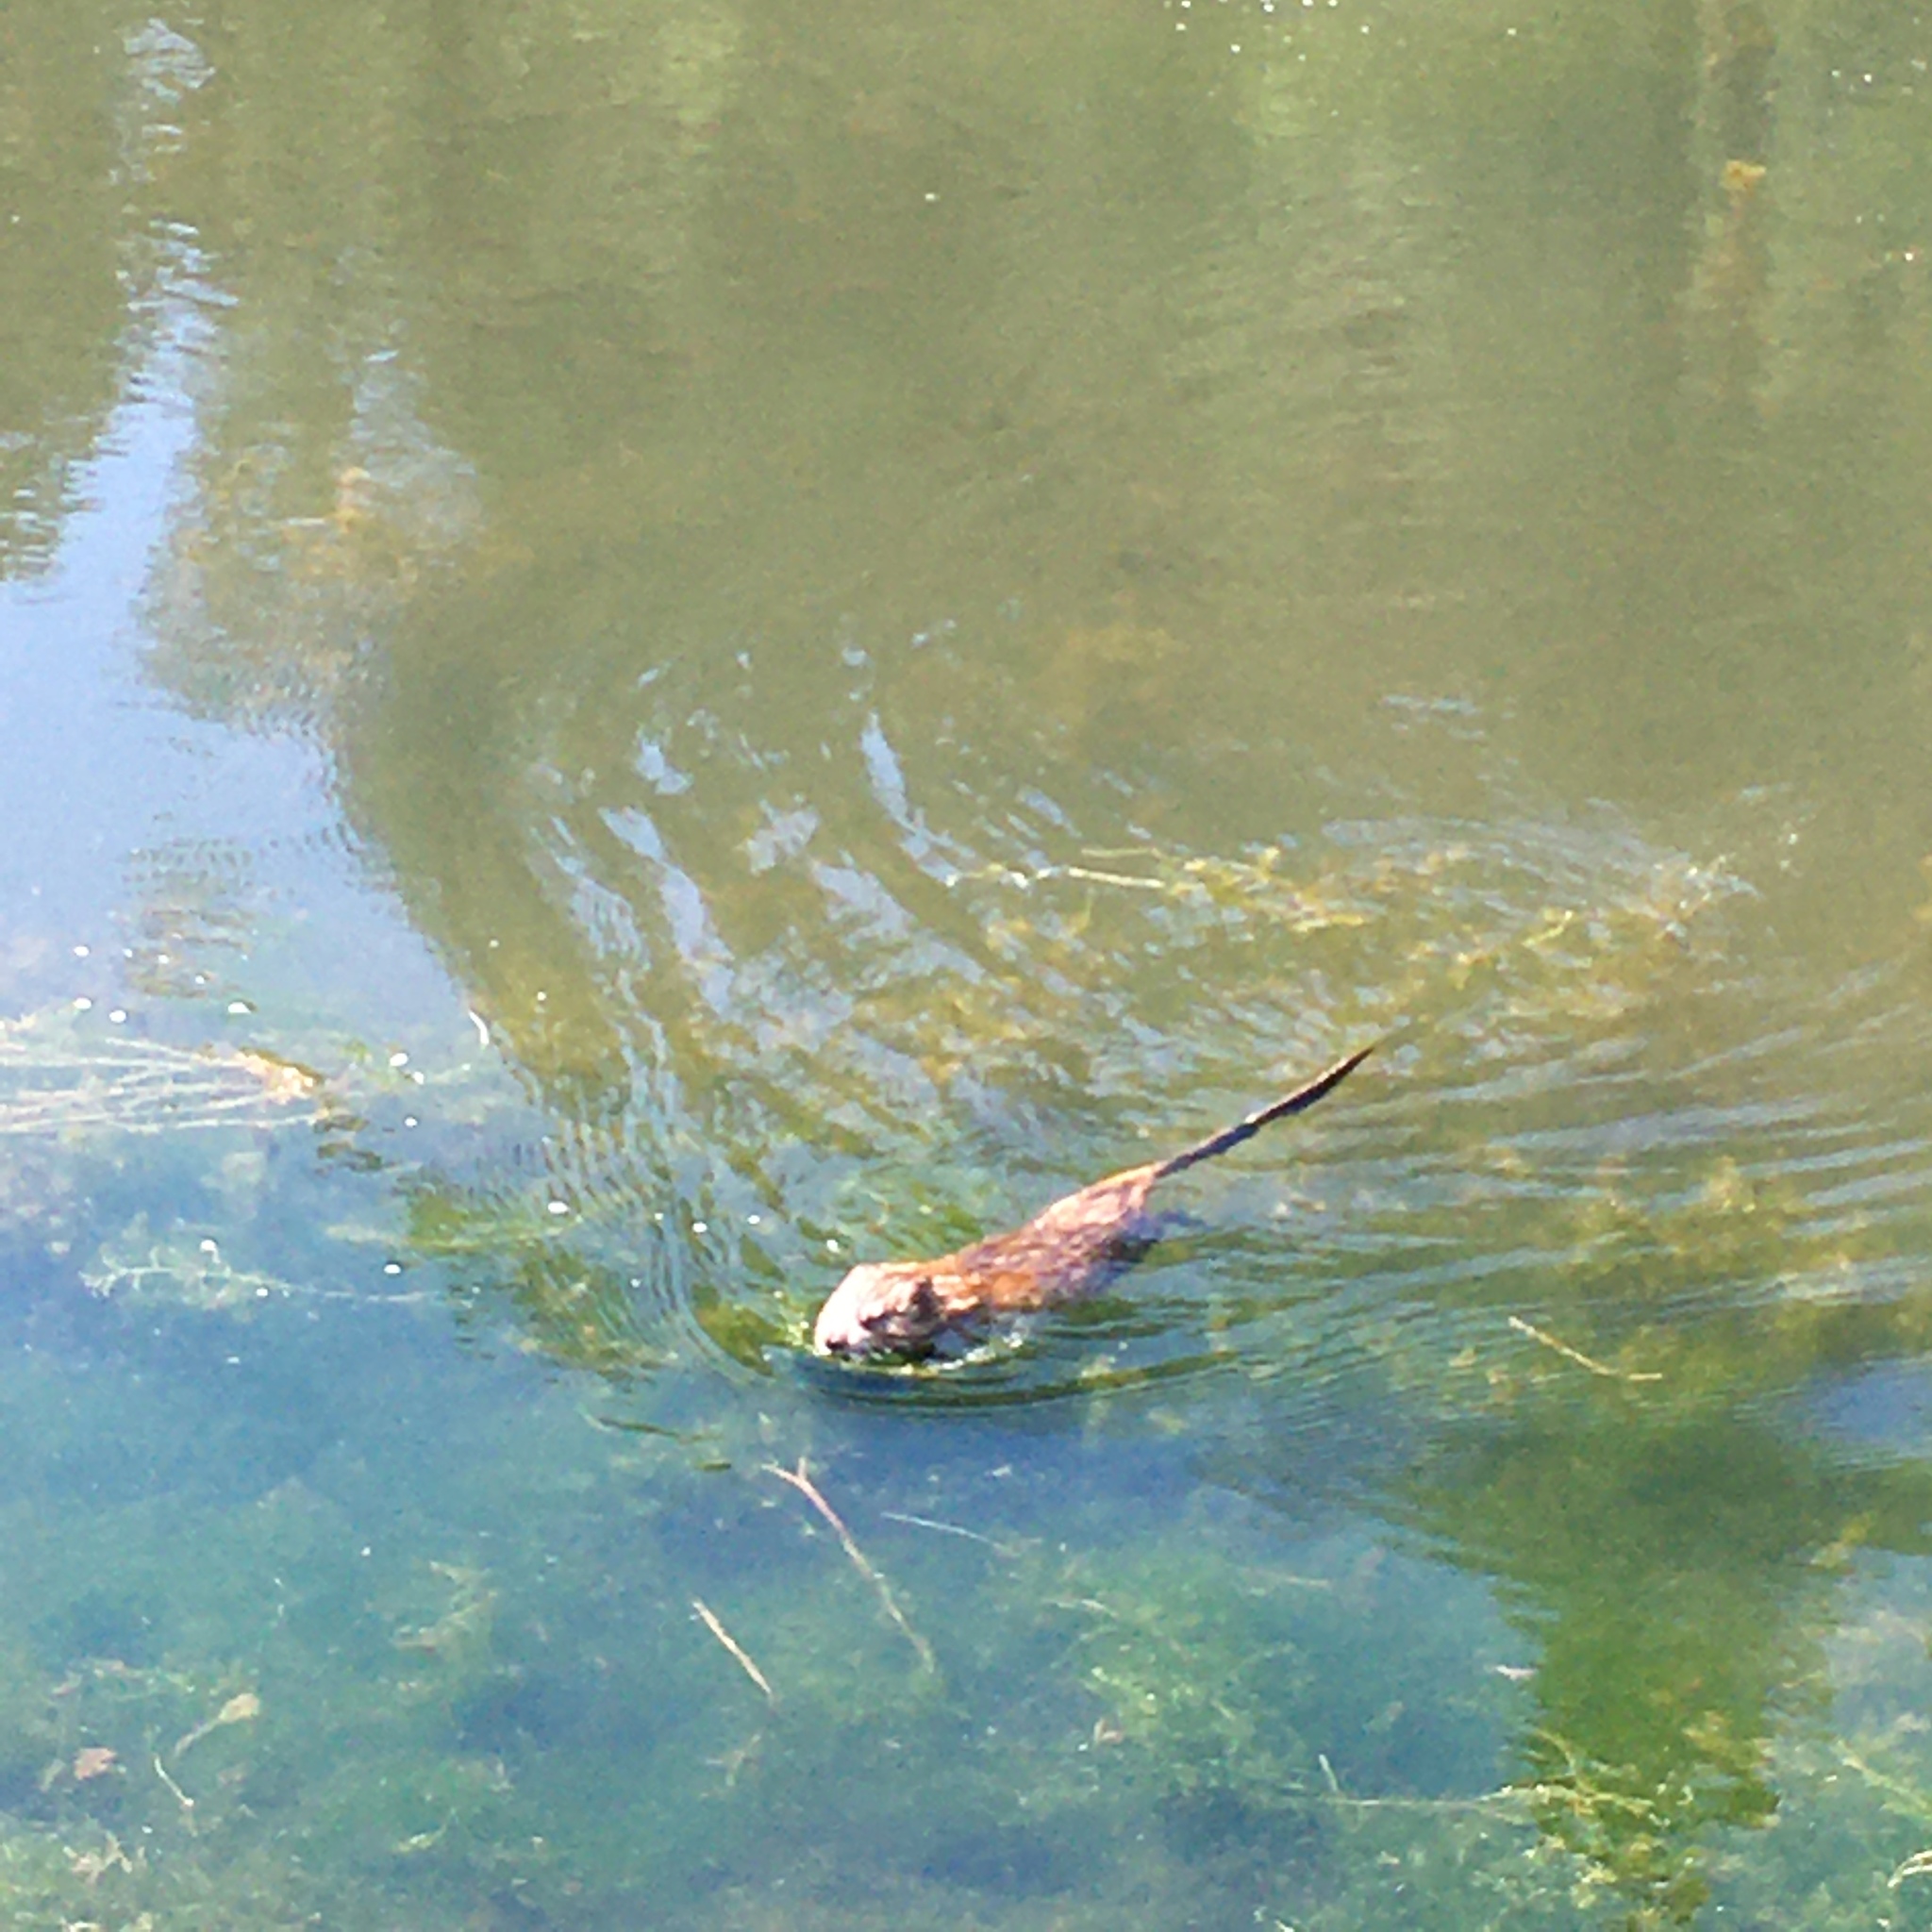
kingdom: Animalia
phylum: Chordata
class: Mammalia
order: Rodentia
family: Cricetidae
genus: Ondatra
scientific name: Ondatra zibethicus
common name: Muskrat
